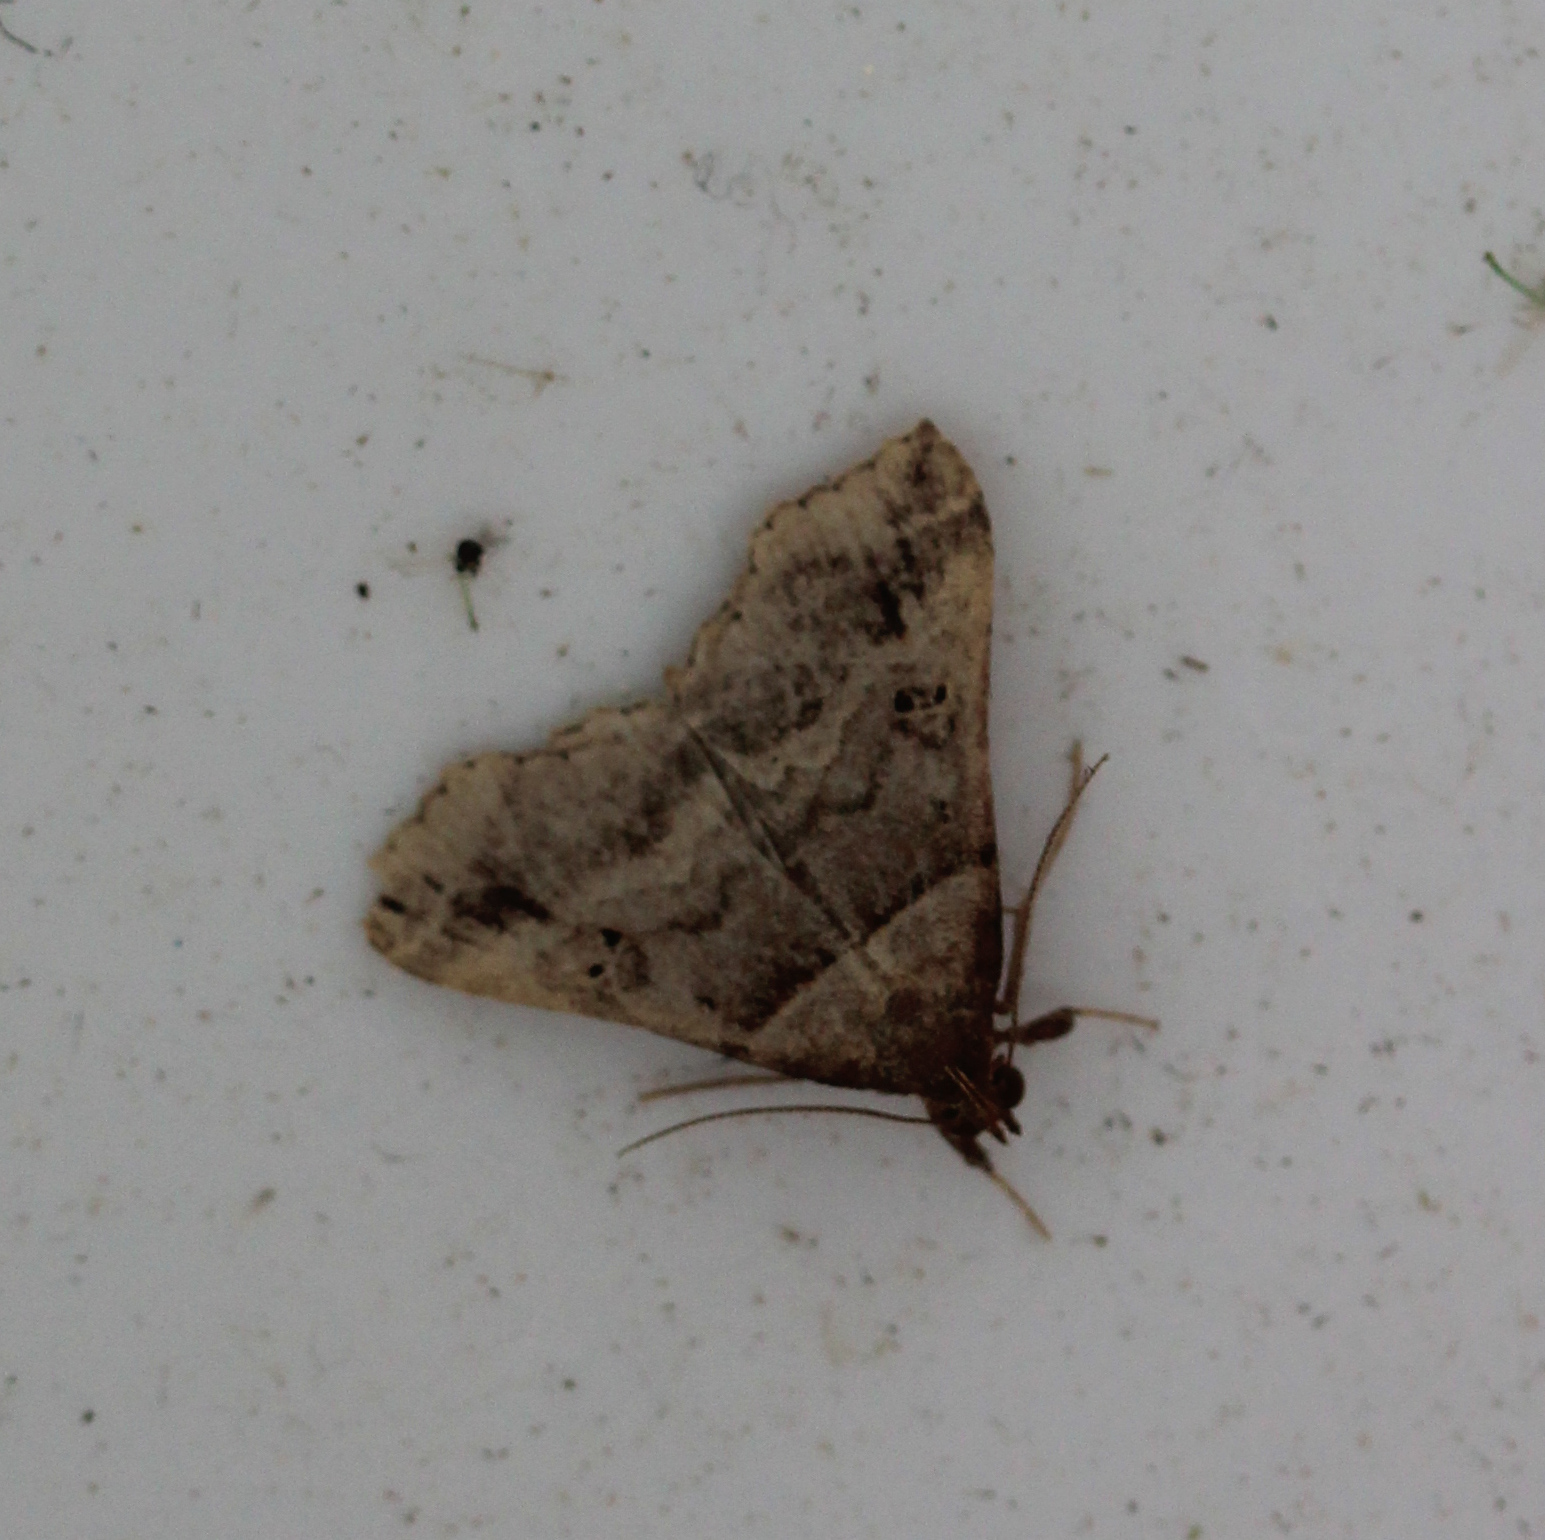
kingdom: Animalia
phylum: Arthropoda
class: Insecta
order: Lepidoptera
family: Erebidae
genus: Phaeolita
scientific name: Phaeolita pyramusalis
